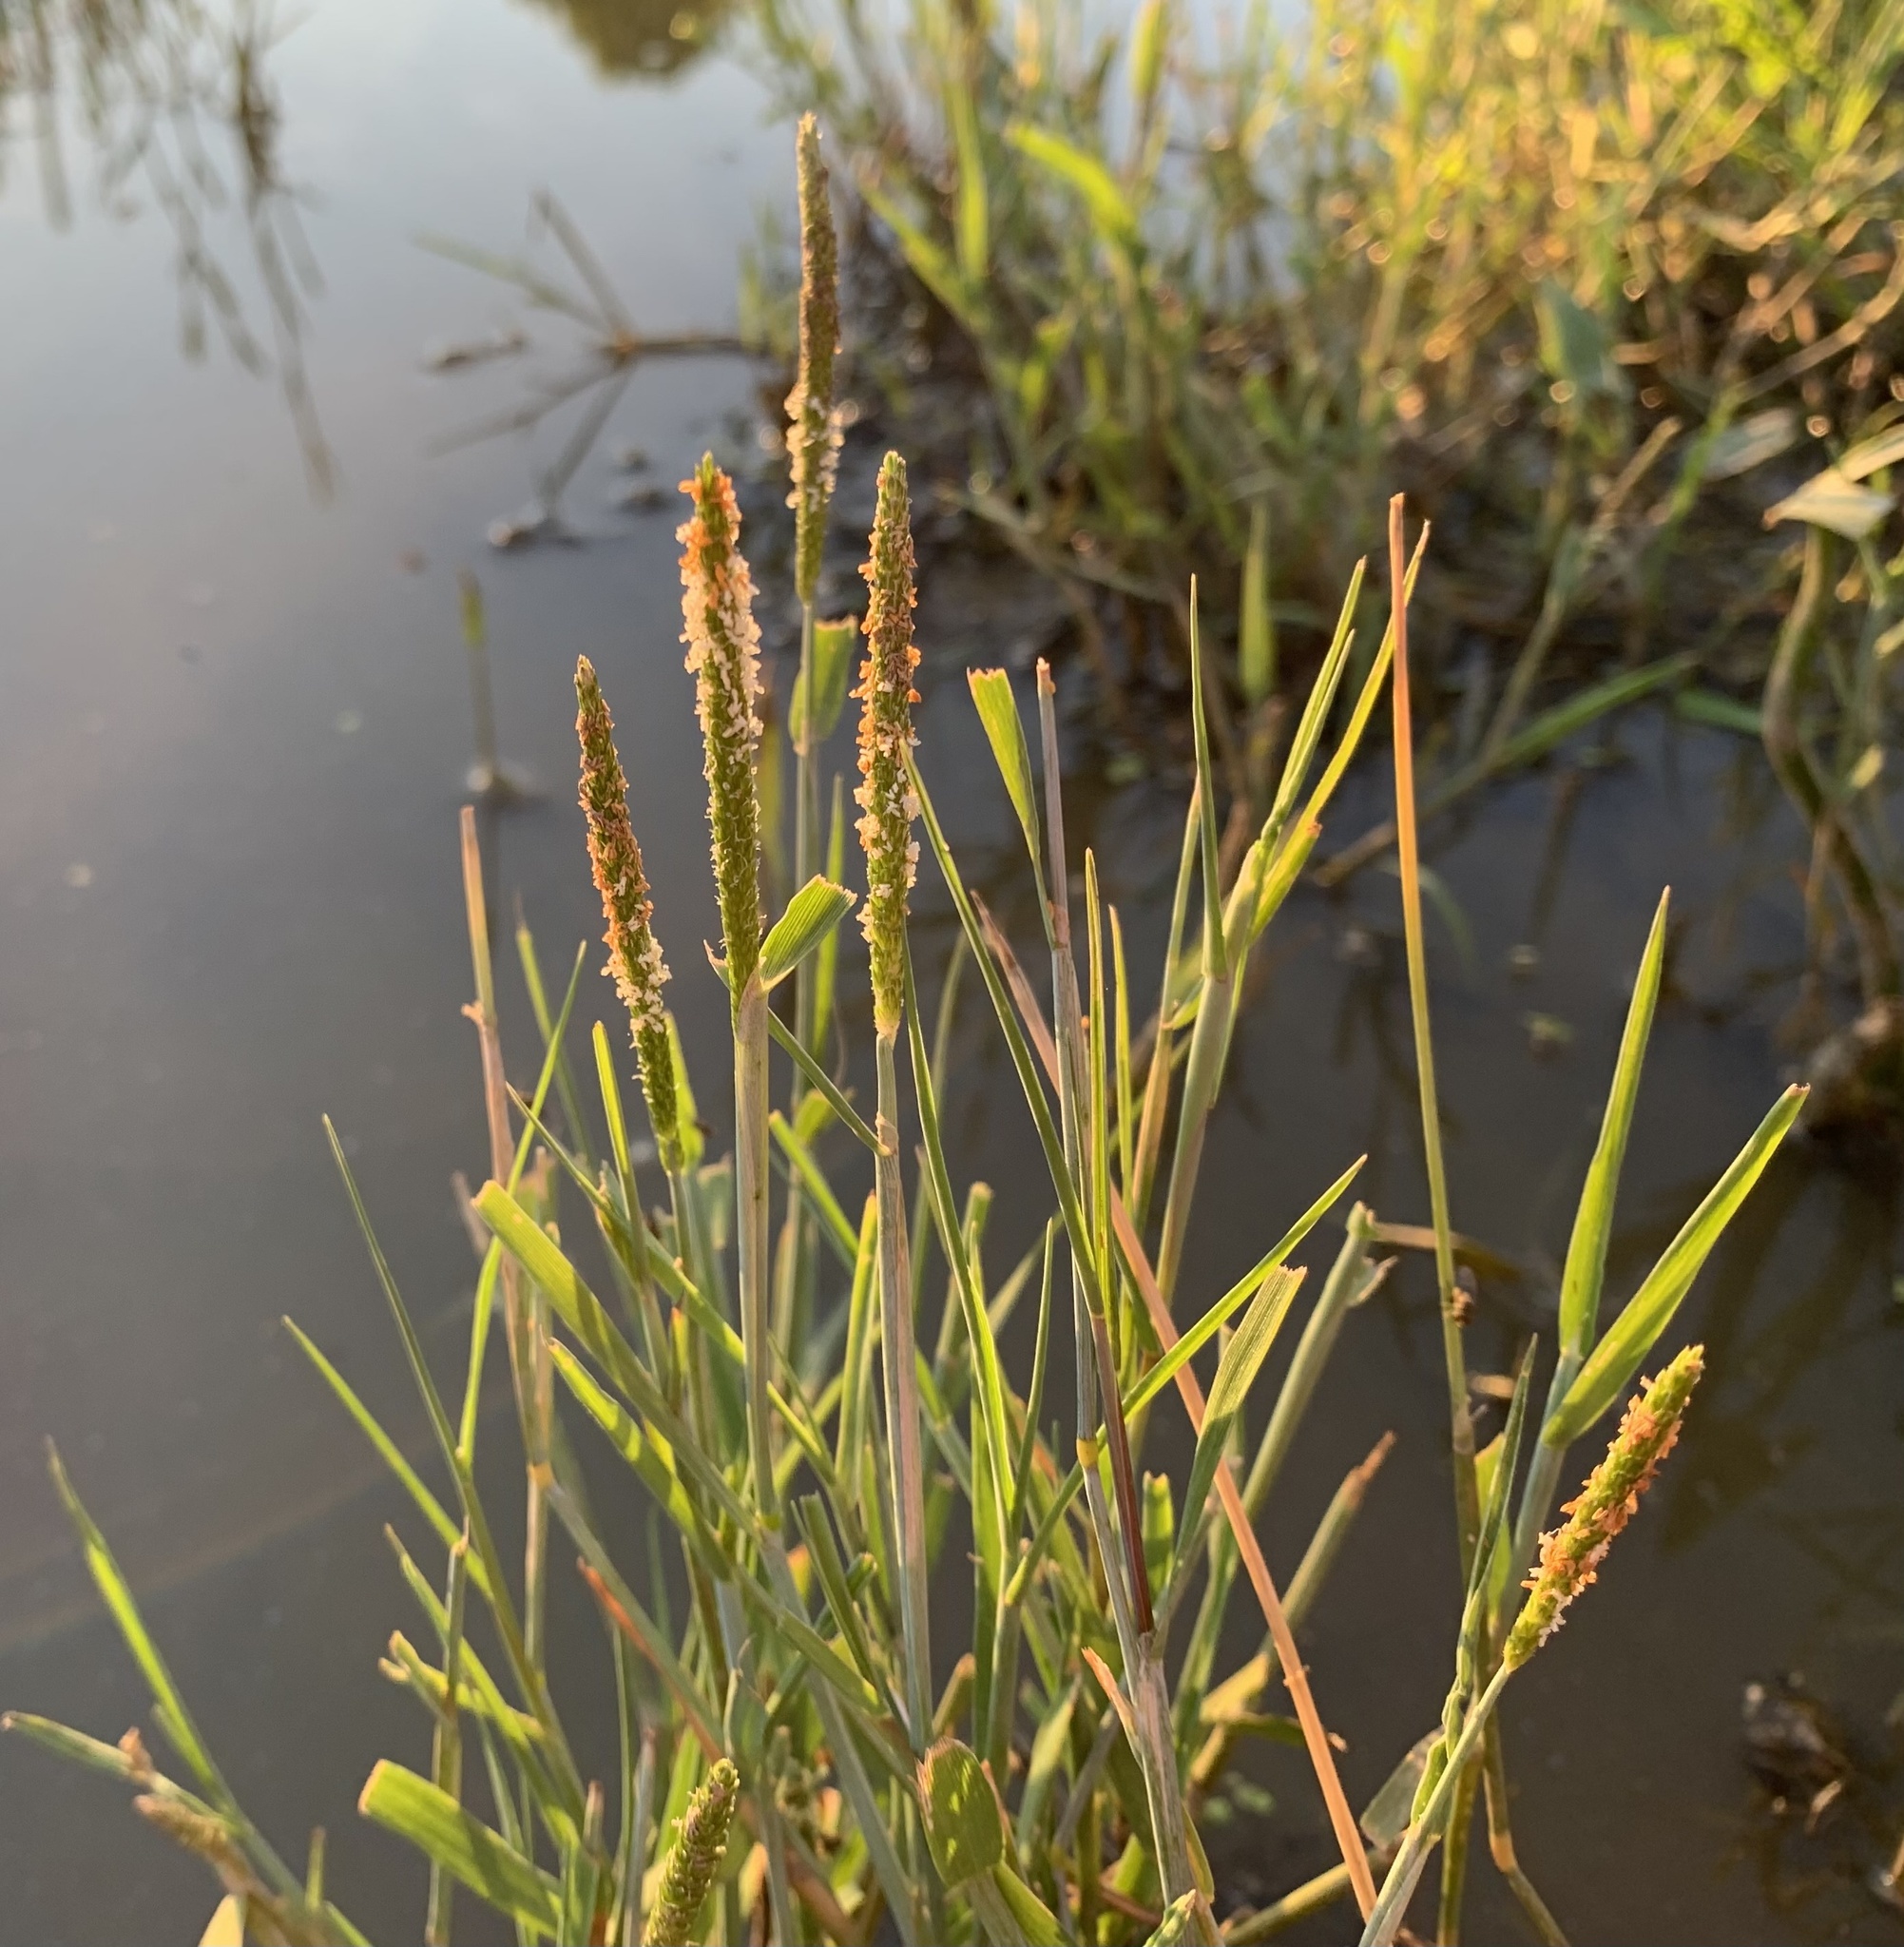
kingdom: Plantae
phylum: Tracheophyta
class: Liliopsida
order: Poales
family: Poaceae
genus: Alopecurus
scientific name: Alopecurus aequalis
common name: Orange foxtail
